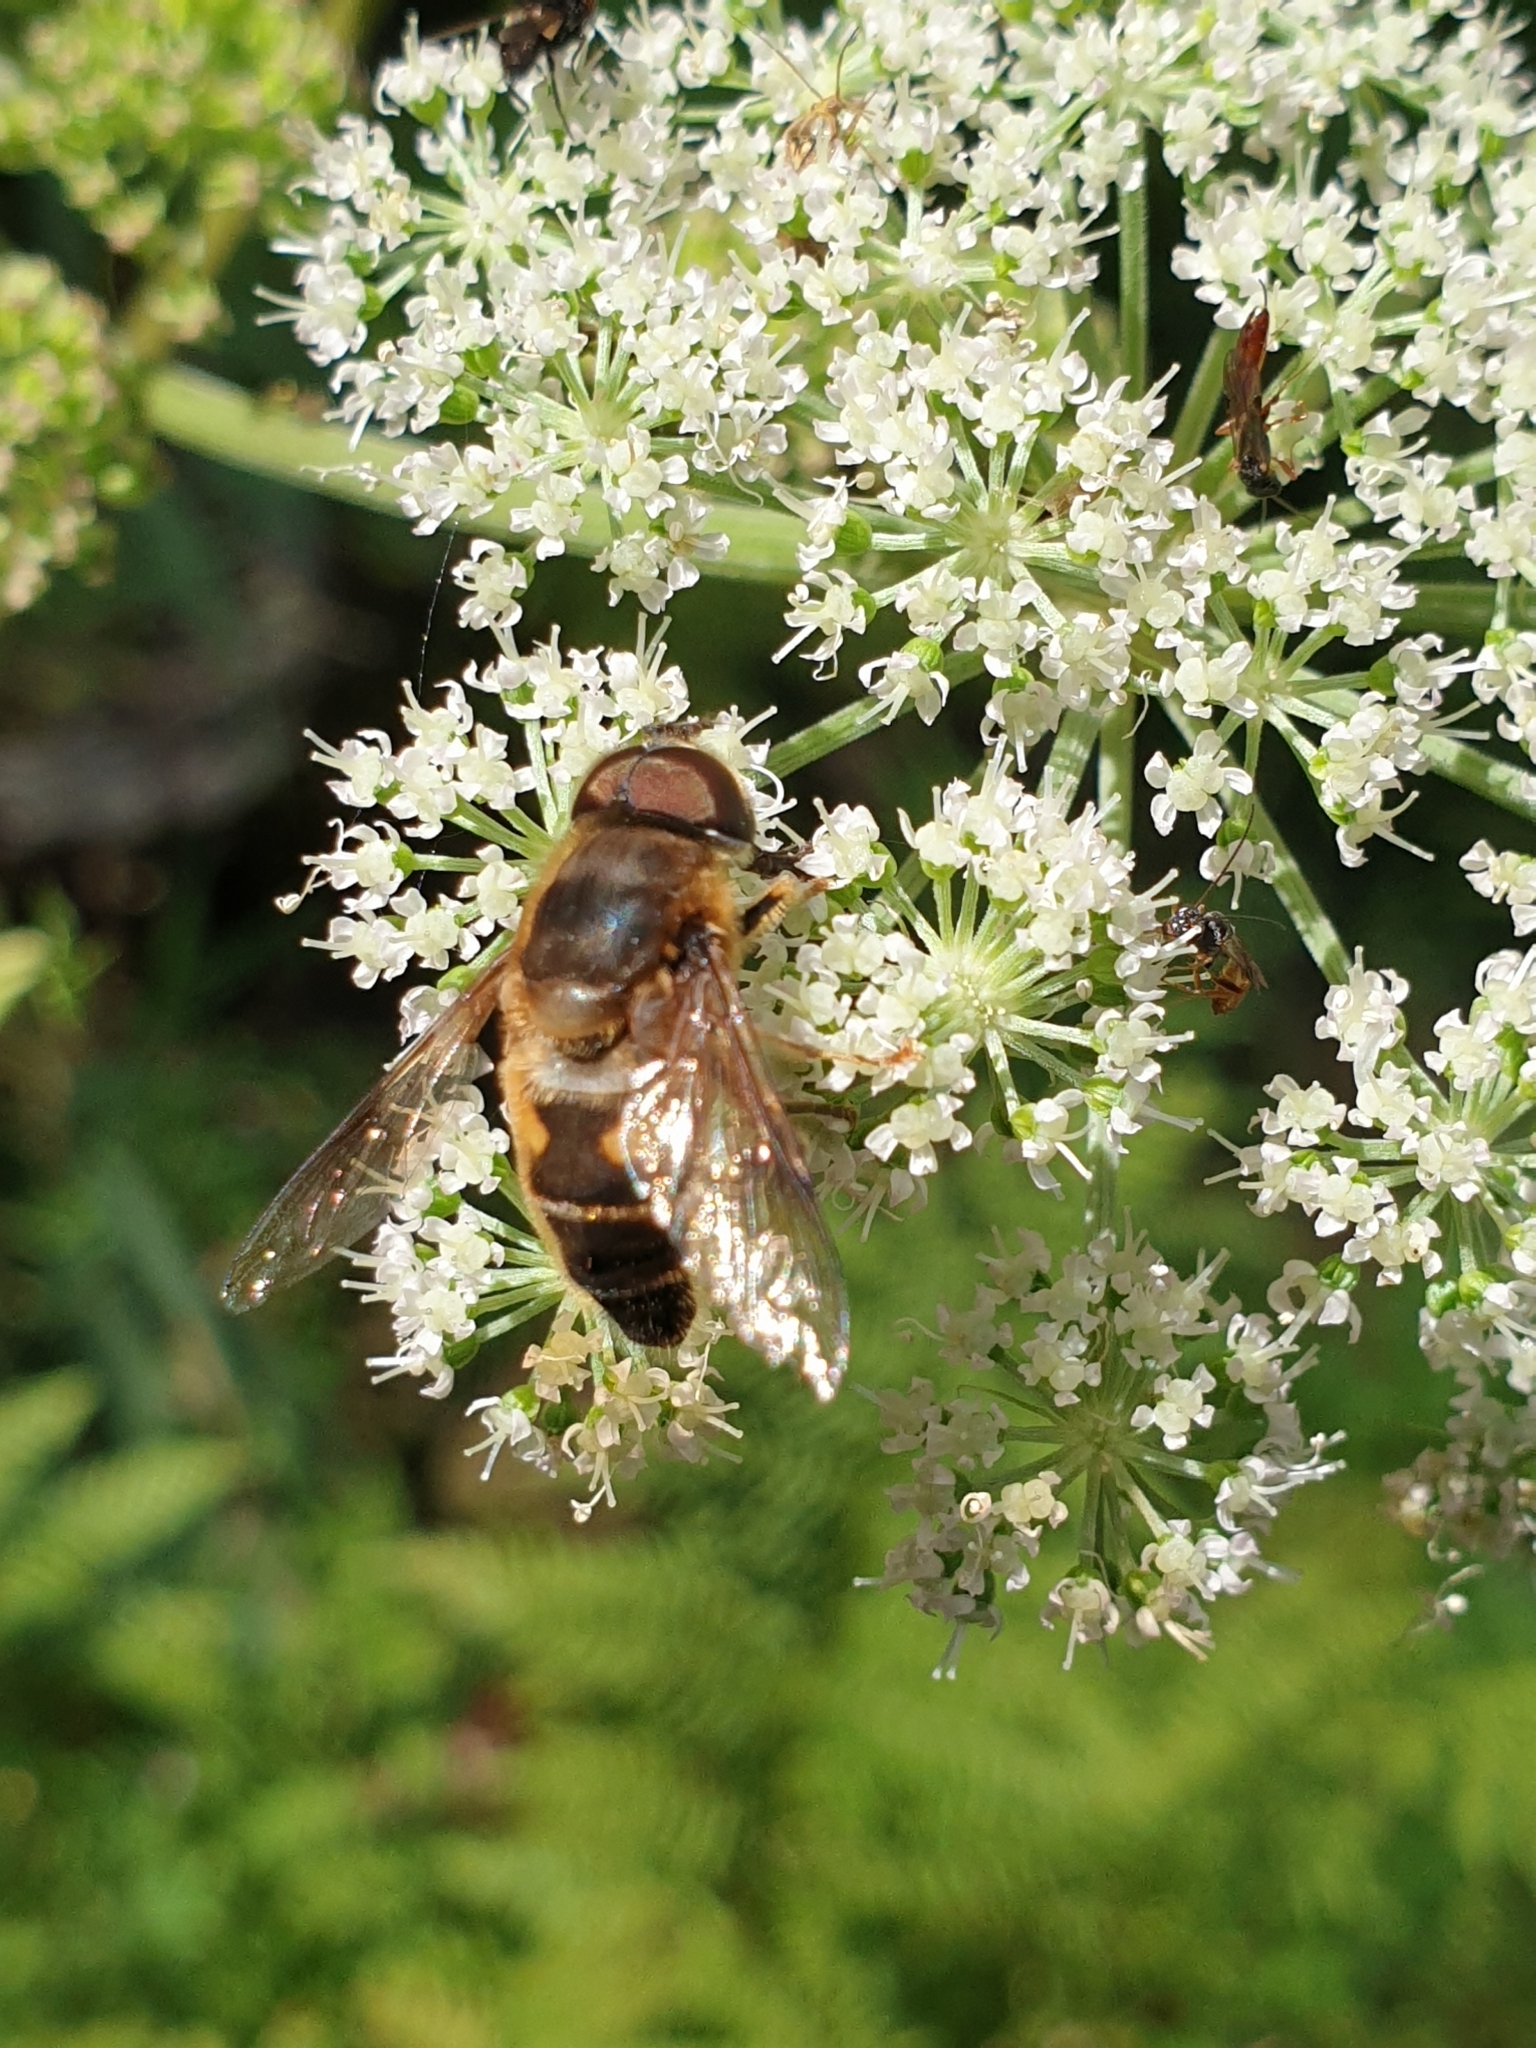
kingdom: Animalia
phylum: Arthropoda
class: Insecta
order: Diptera
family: Syrphidae
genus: Eristalis
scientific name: Eristalis pertinax
